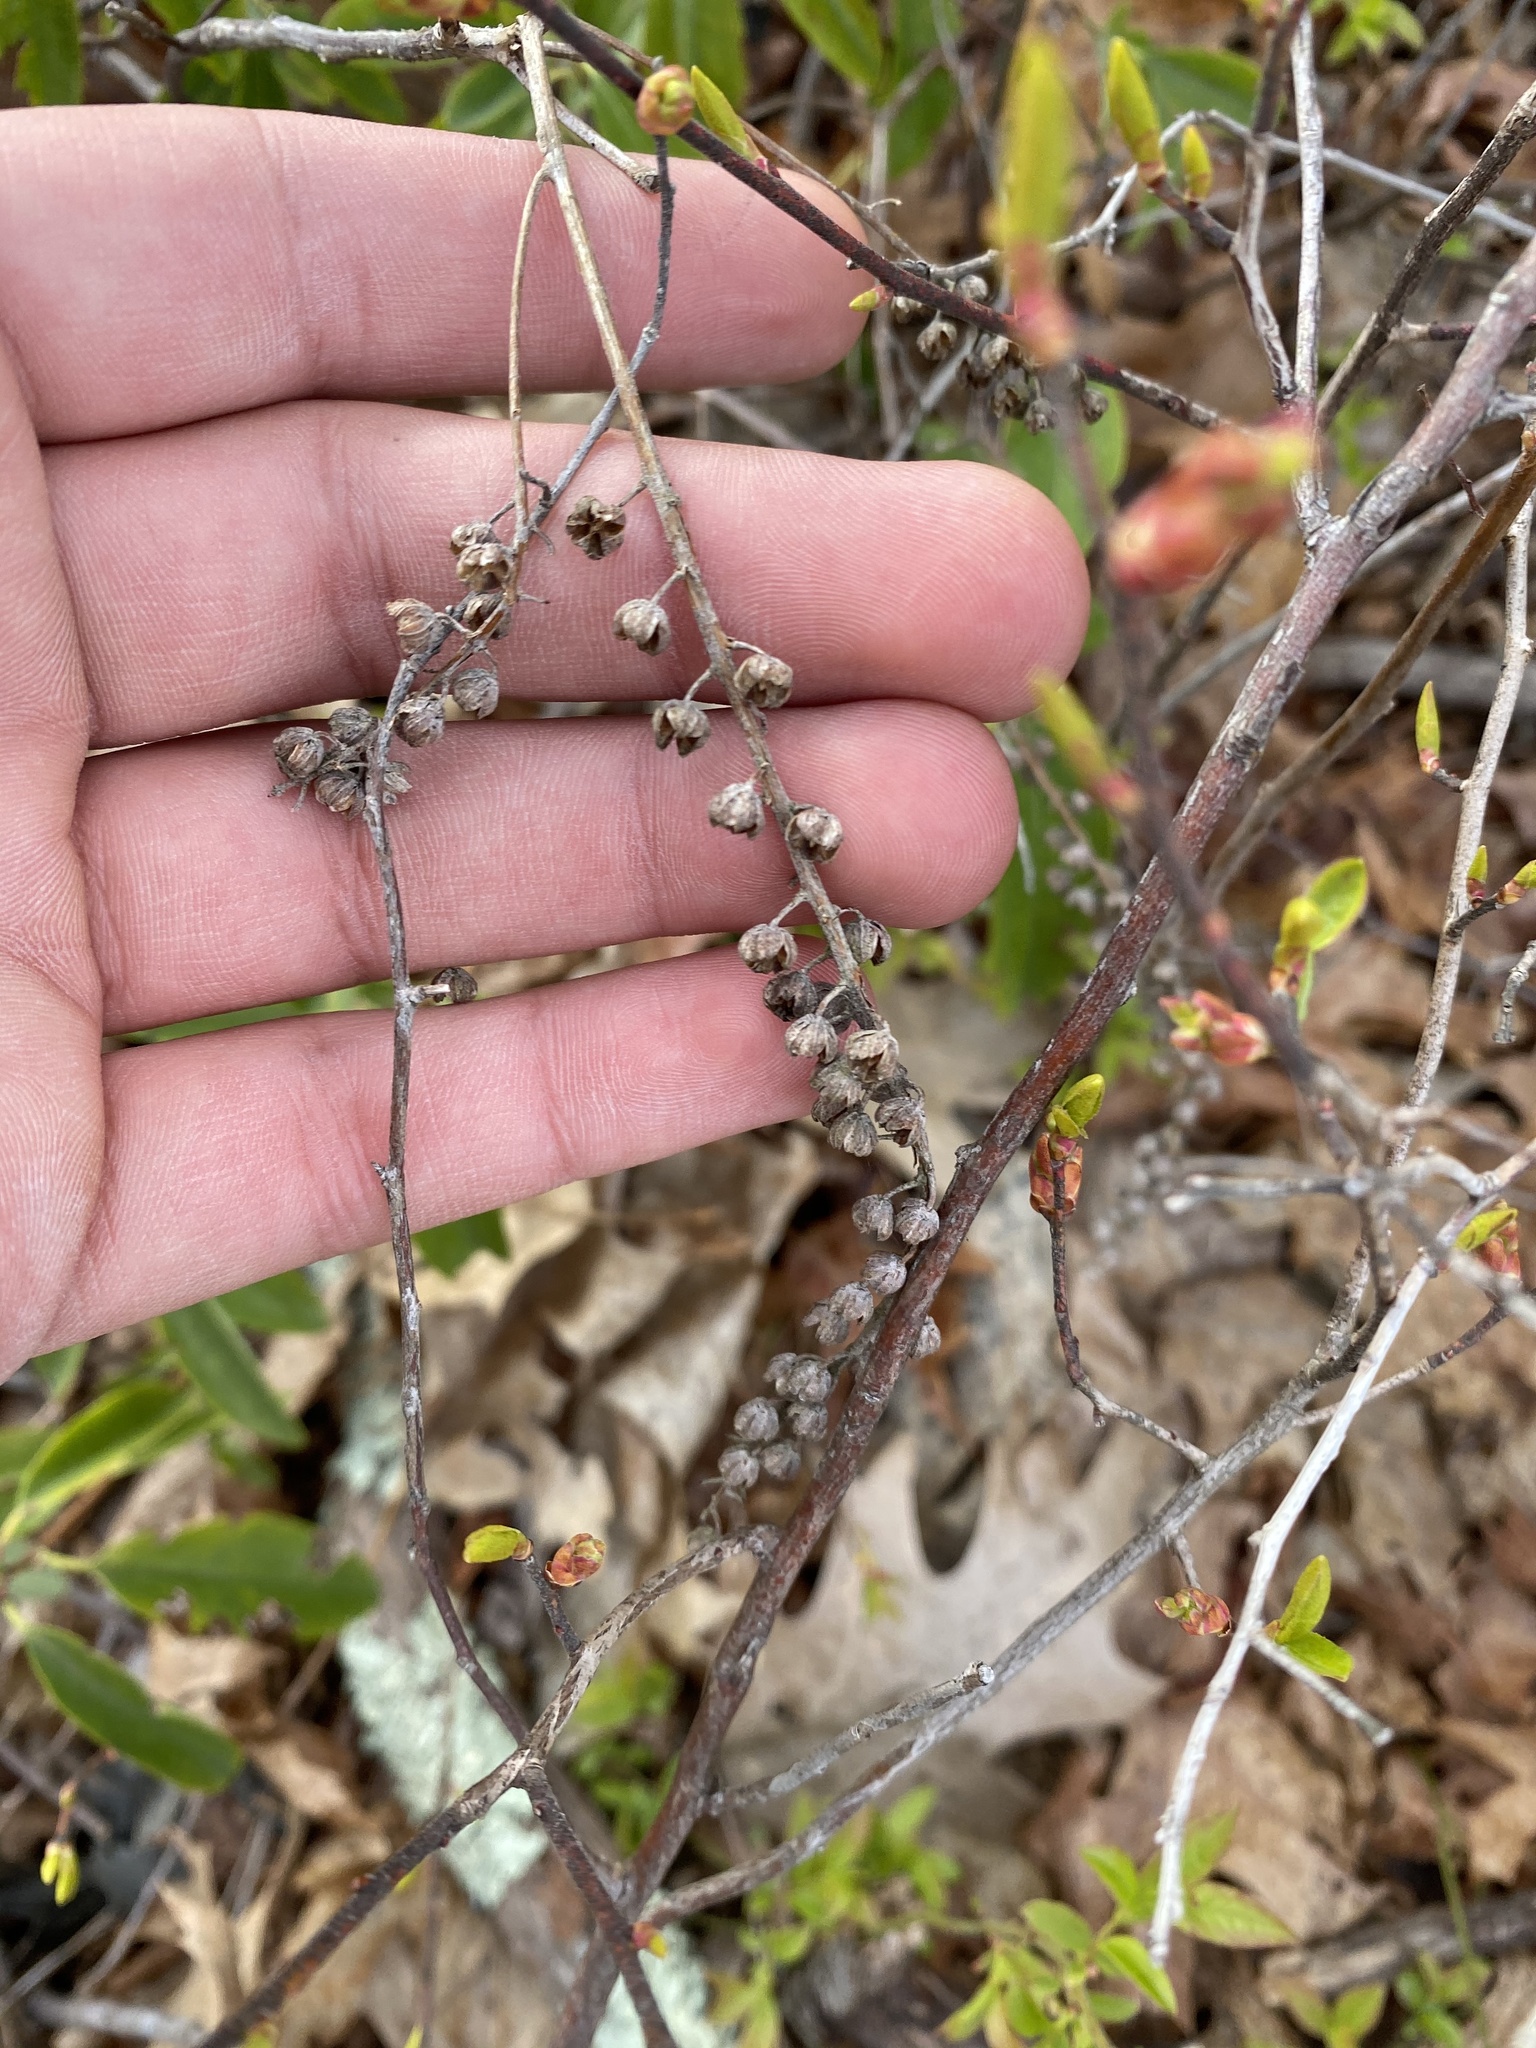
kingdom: Plantae
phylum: Tracheophyta
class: Magnoliopsida
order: Ericales
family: Clethraceae
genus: Clethra
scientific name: Clethra alnifolia
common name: Sweet pepperbush
